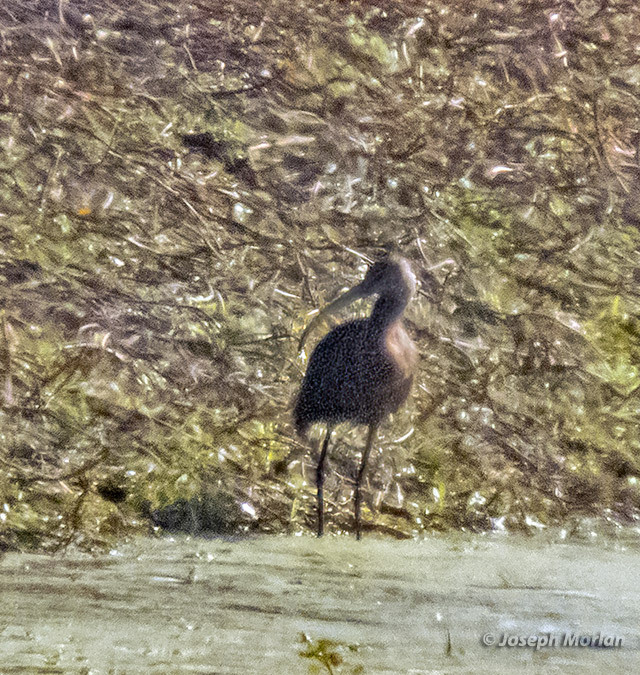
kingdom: Animalia
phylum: Chordata
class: Aves
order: Pelecaniformes
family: Threskiornithidae
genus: Plegadis
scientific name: Plegadis chihi
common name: White-faced ibis
